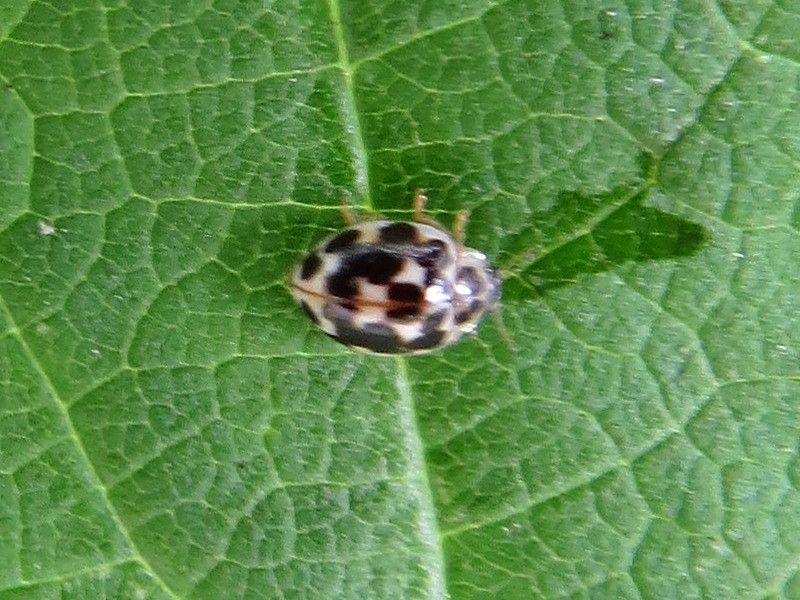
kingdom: Animalia
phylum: Arthropoda
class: Insecta
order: Coleoptera
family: Coccinellidae
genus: Psyllobora
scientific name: Psyllobora vigintimaculata
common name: Ladybird beetle
